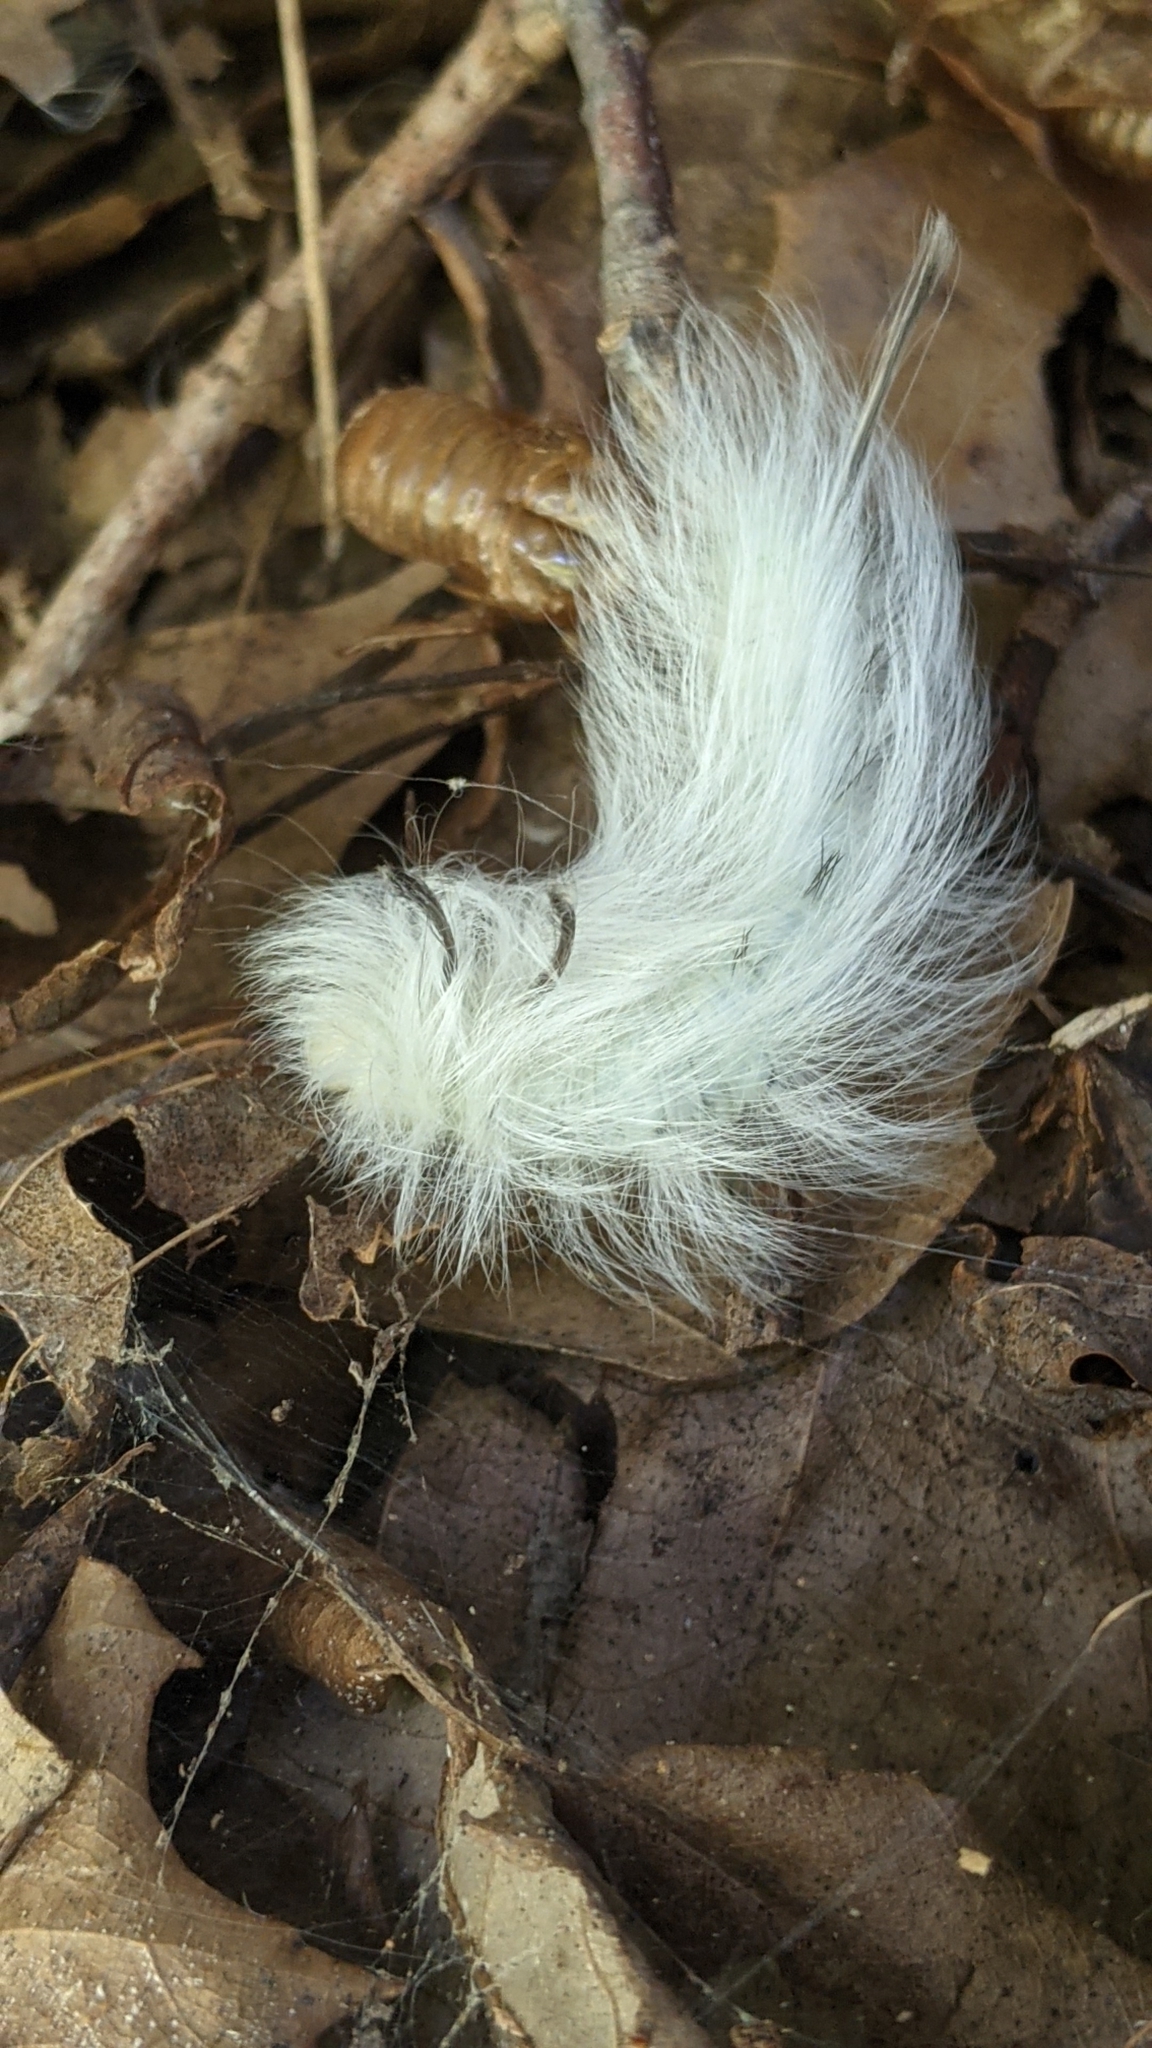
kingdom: Animalia
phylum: Arthropoda
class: Insecta
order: Lepidoptera
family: Apatelodidae
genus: Hygrochroa
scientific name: Hygrochroa Apatelodes torrefacta
